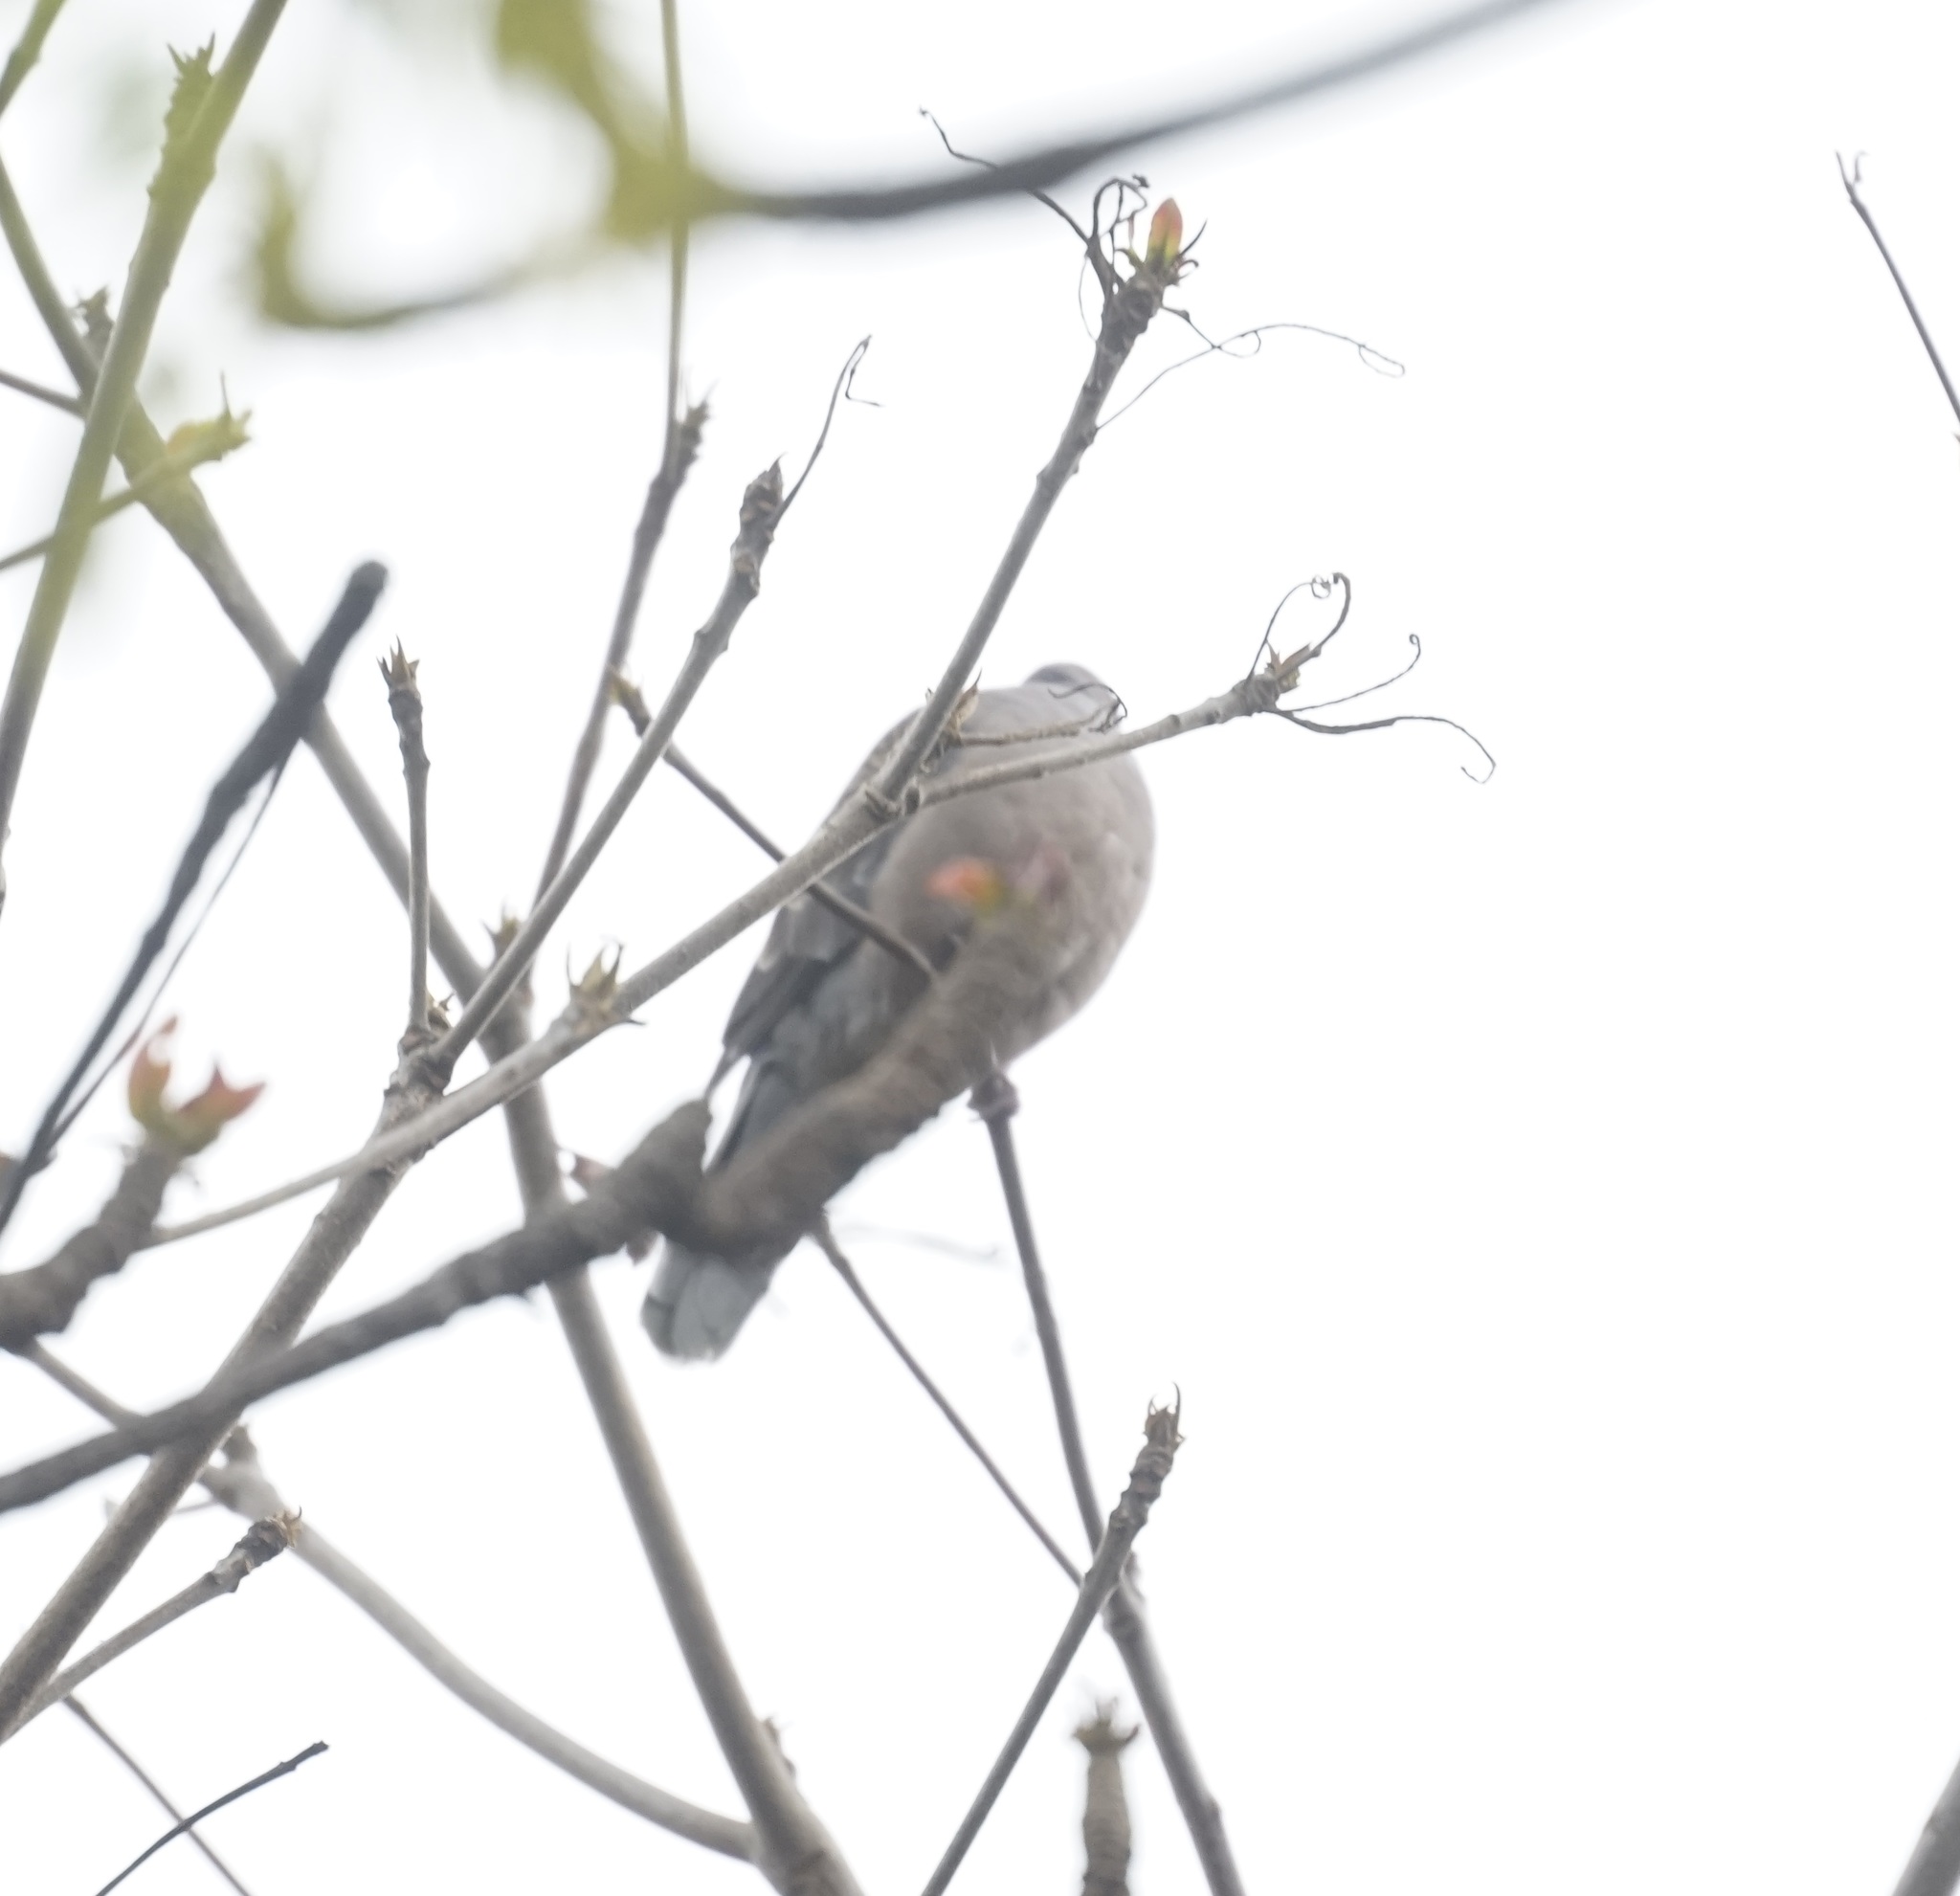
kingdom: Animalia
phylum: Chordata
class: Aves
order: Columbiformes
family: Columbidae
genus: Streptopelia
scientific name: Streptopelia orientalis
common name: Oriental turtle dove
